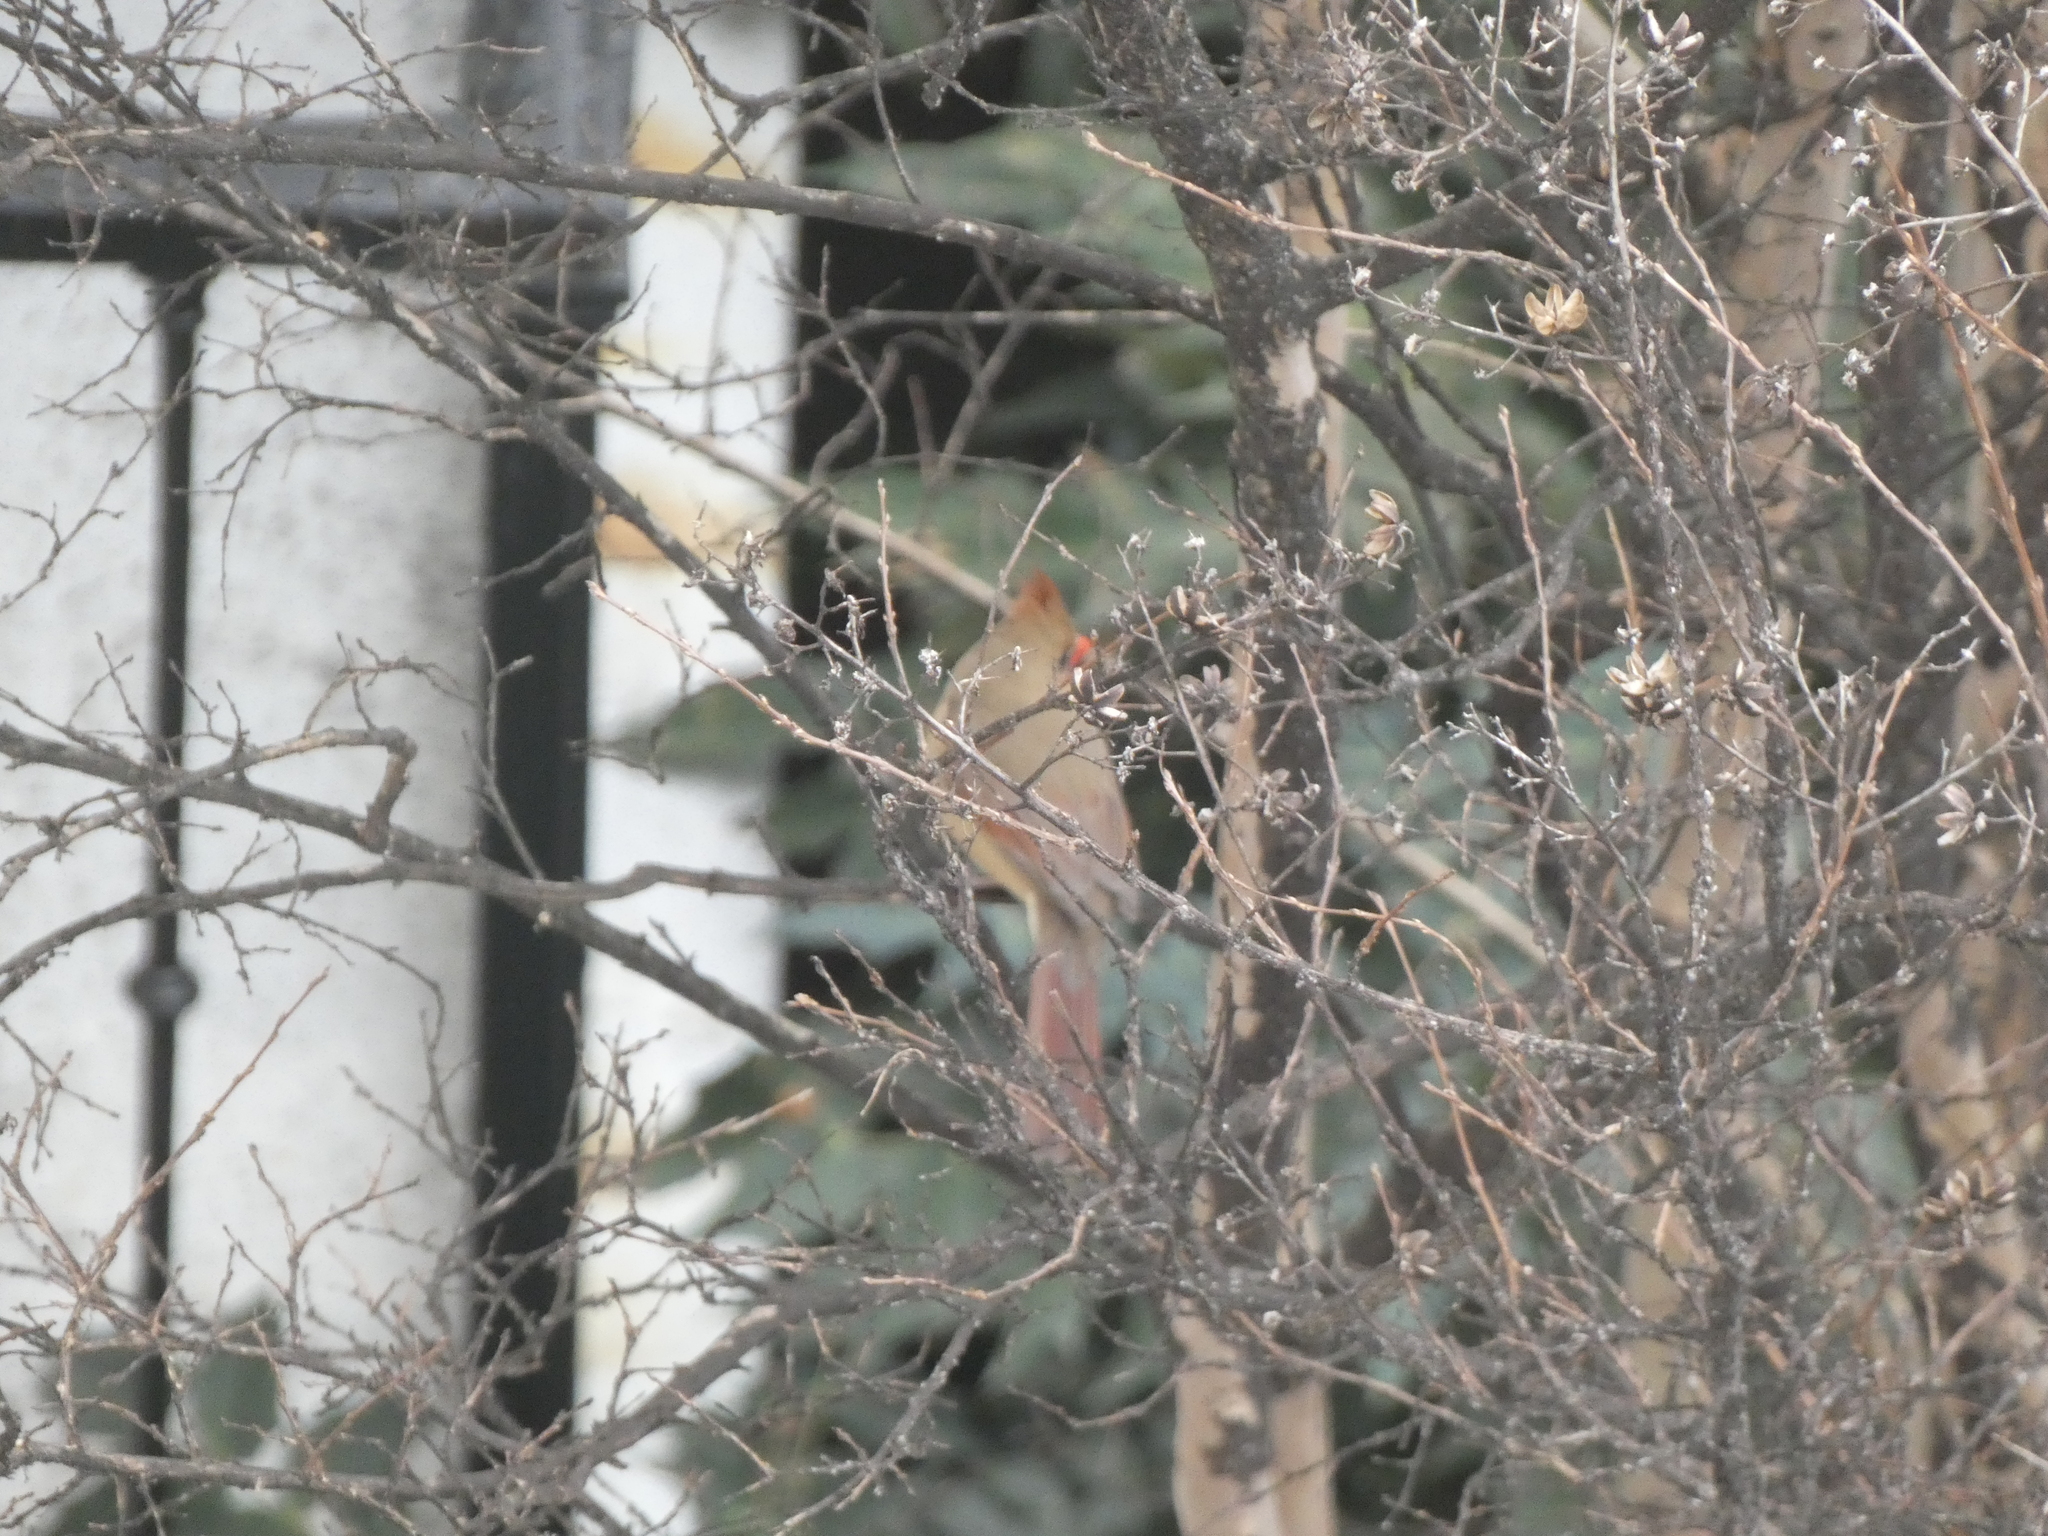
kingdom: Animalia
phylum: Chordata
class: Aves
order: Passeriformes
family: Cardinalidae
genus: Cardinalis
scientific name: Cardinalis cardinalis
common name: Northern cardinal
